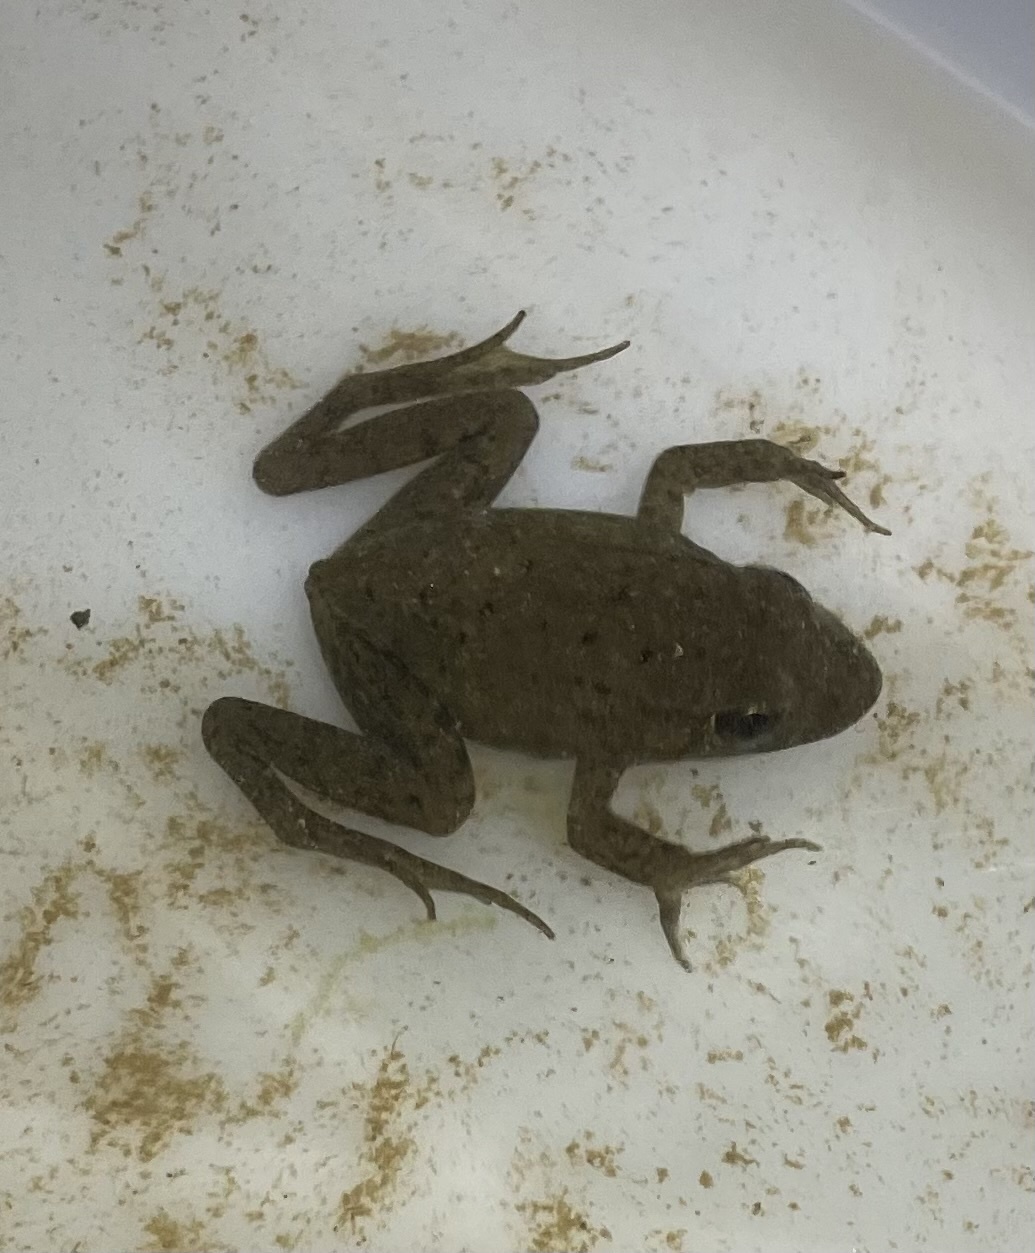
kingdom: Animalia
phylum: Chordata
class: Amphibia
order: Anura
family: Ranidae
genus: Lithobates
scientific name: Lithobates clamitans
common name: Green frog
